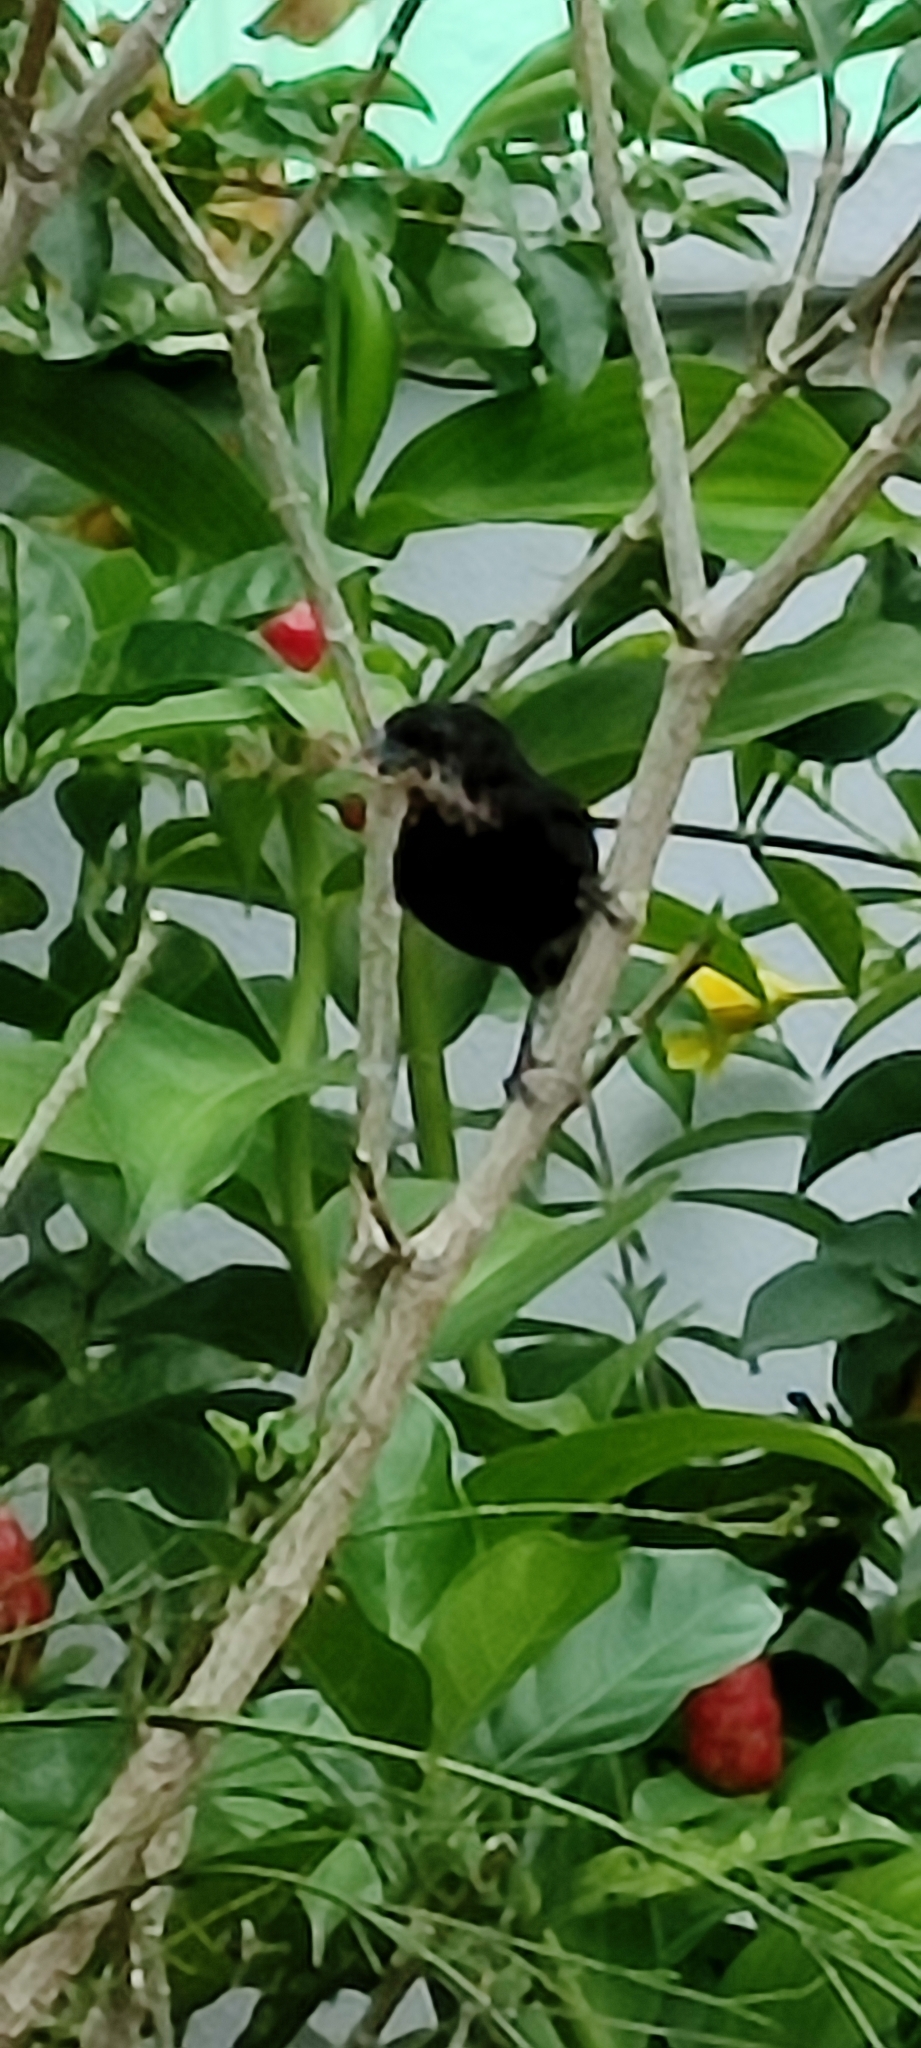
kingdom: Animalia
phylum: Chordata
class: Aves
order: Passeriformes
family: Thraupidae
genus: Loxigilla
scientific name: Loxigilla noctis
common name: Lesser antillean bullfinch
